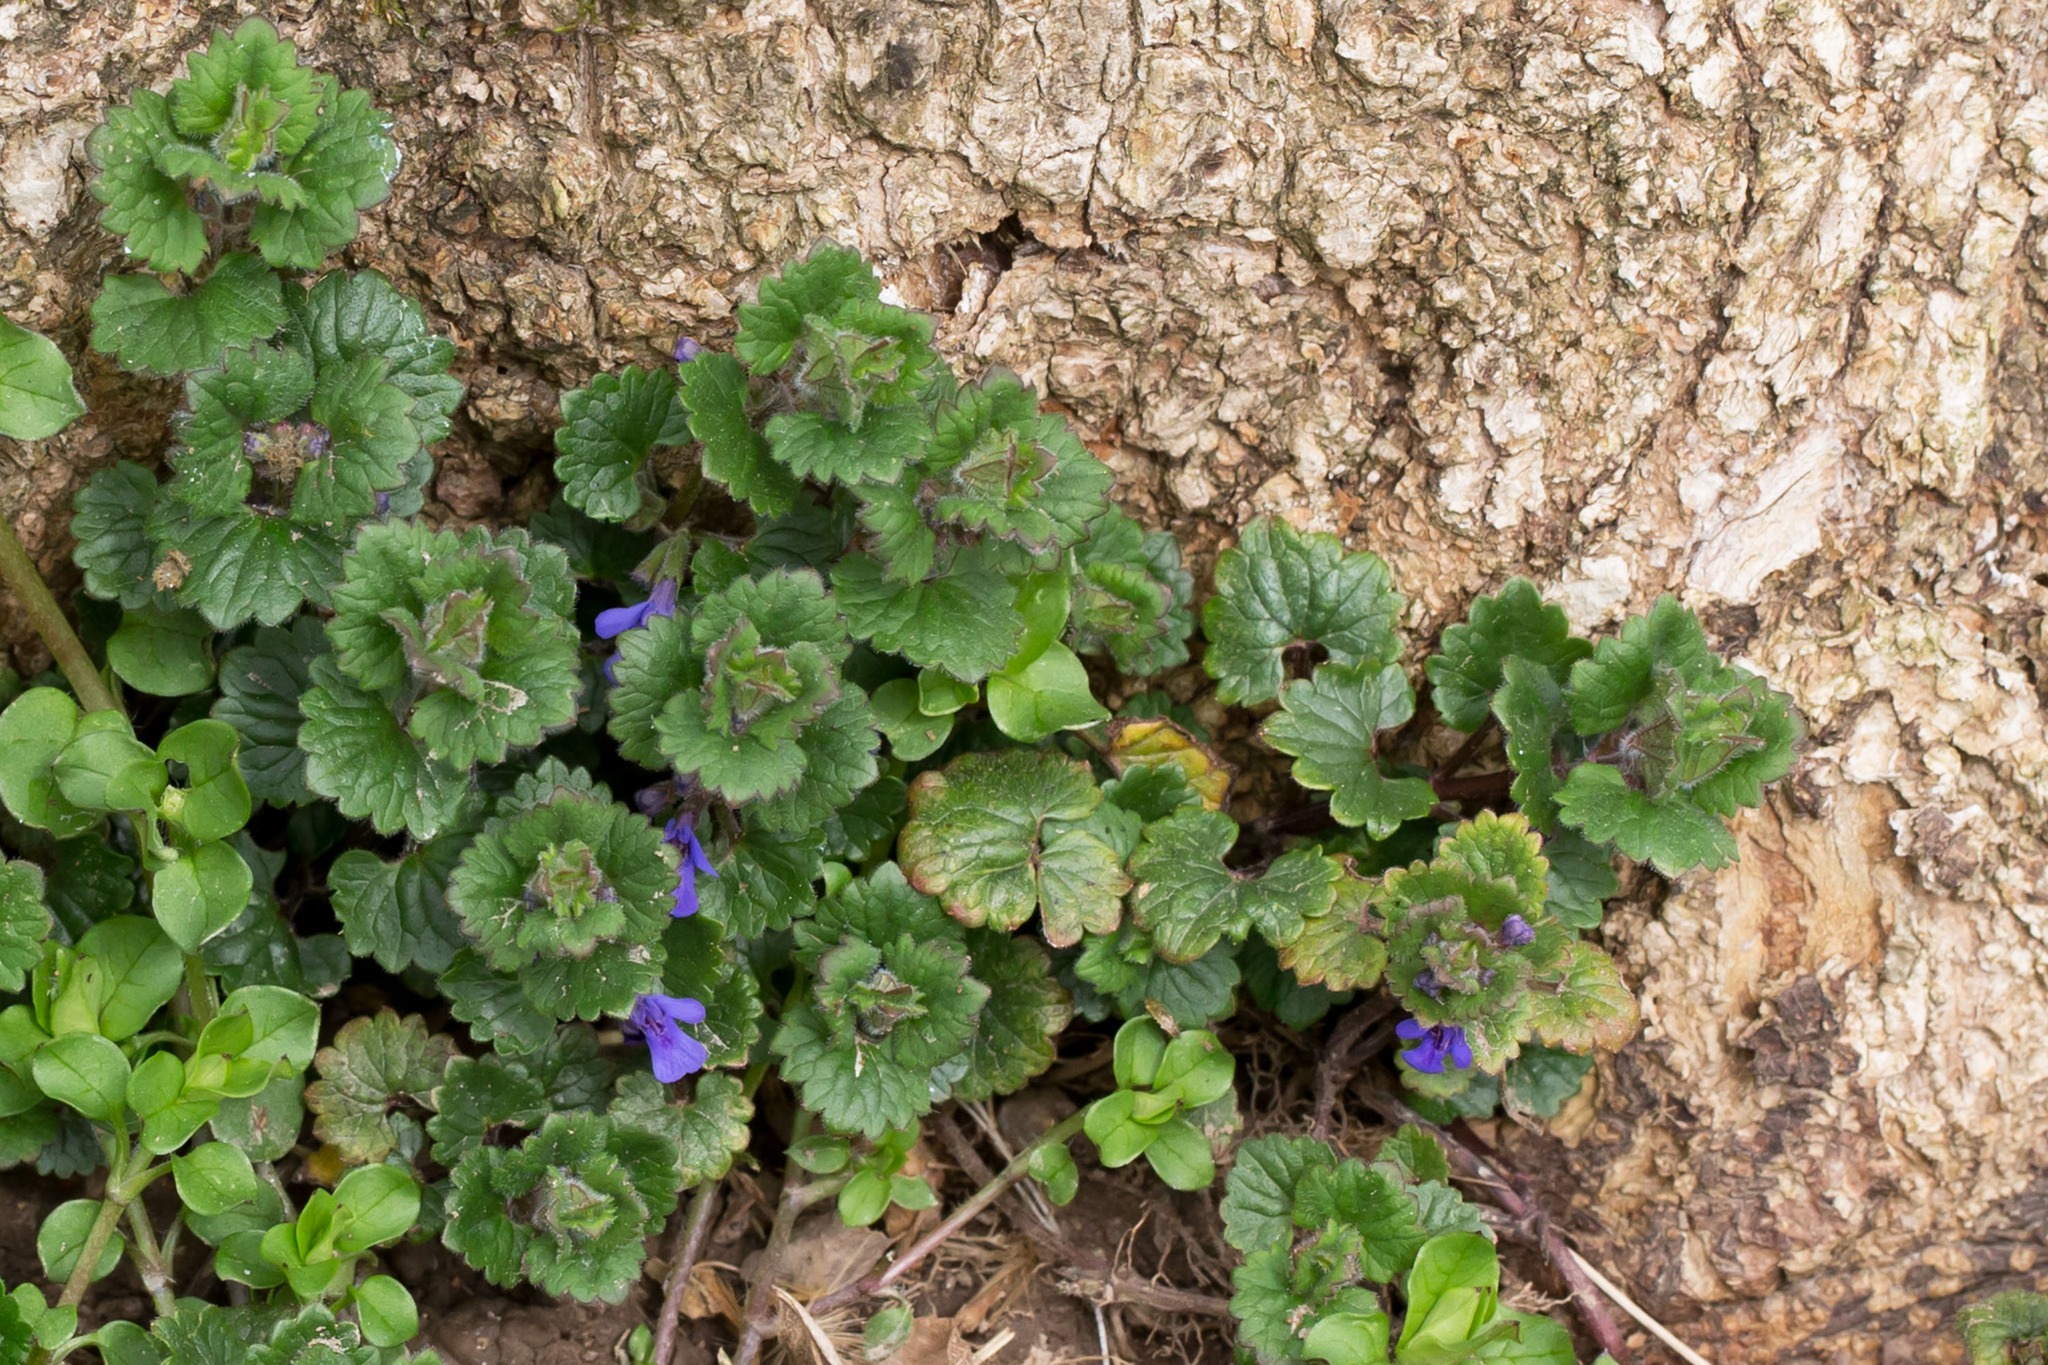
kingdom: Plantae
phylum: Tracheophyta
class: Magnoliopsida
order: Lamiales
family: Lamiaceae
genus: Glechoma
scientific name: Glechoma hederacea
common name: Ground ivy
